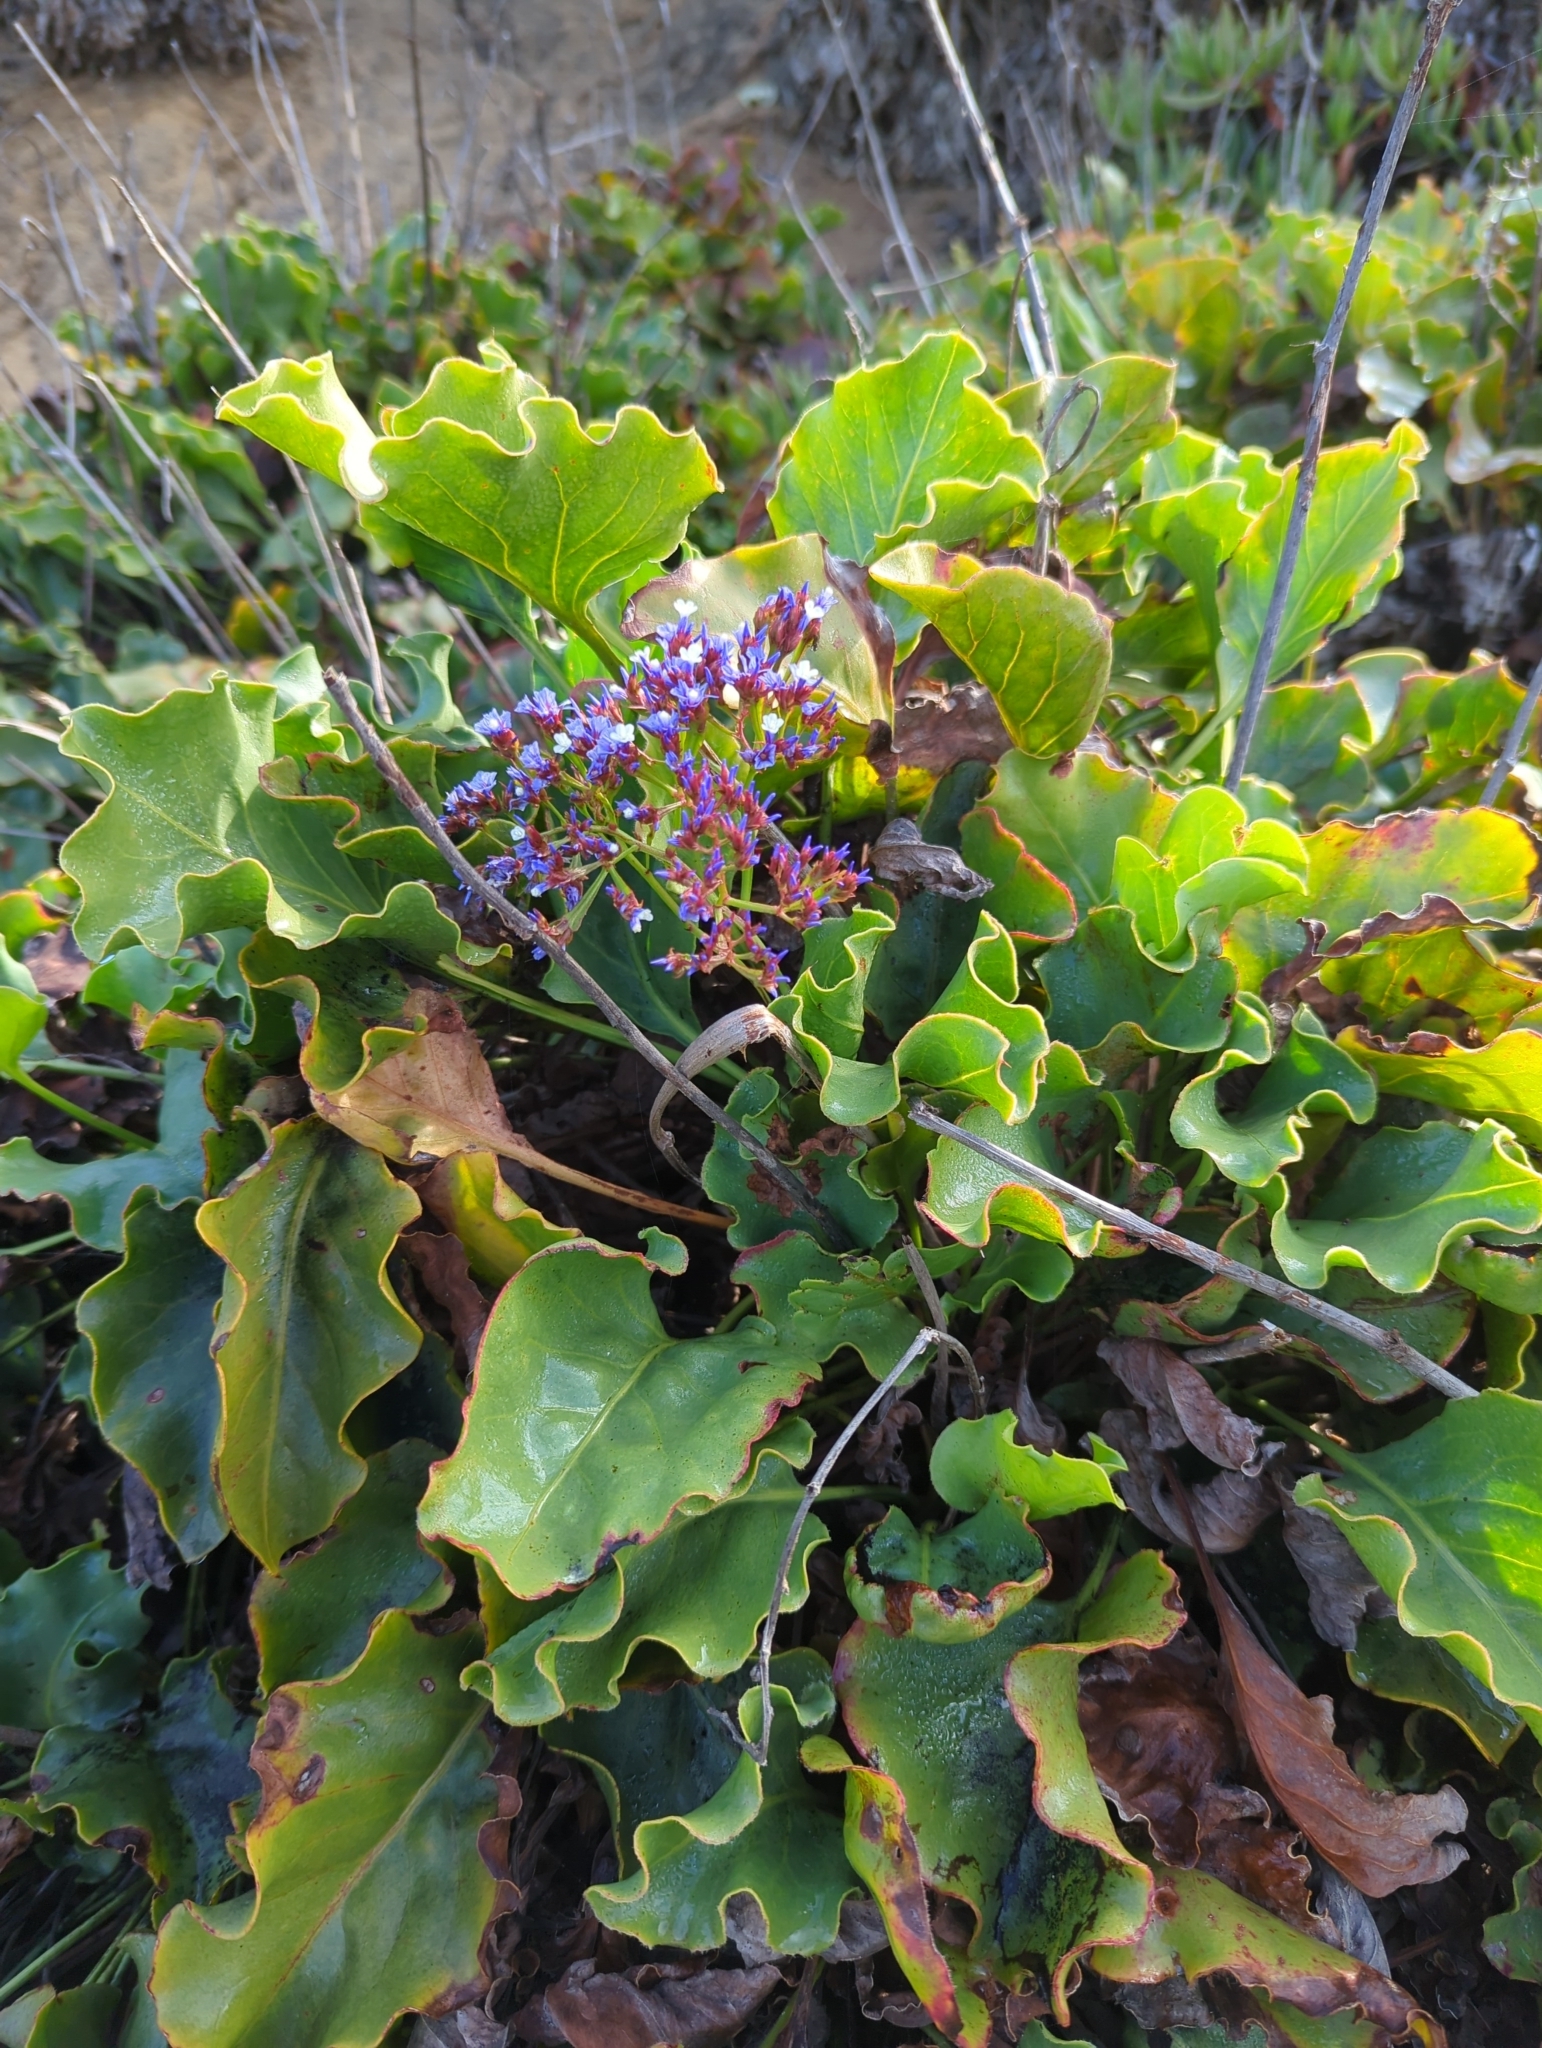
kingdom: Plantae
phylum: Tracheophyta
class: Magnoliopsida
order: Caryophyllales
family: Plumbaginaceae
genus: Limonium
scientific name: Limonium perezii
